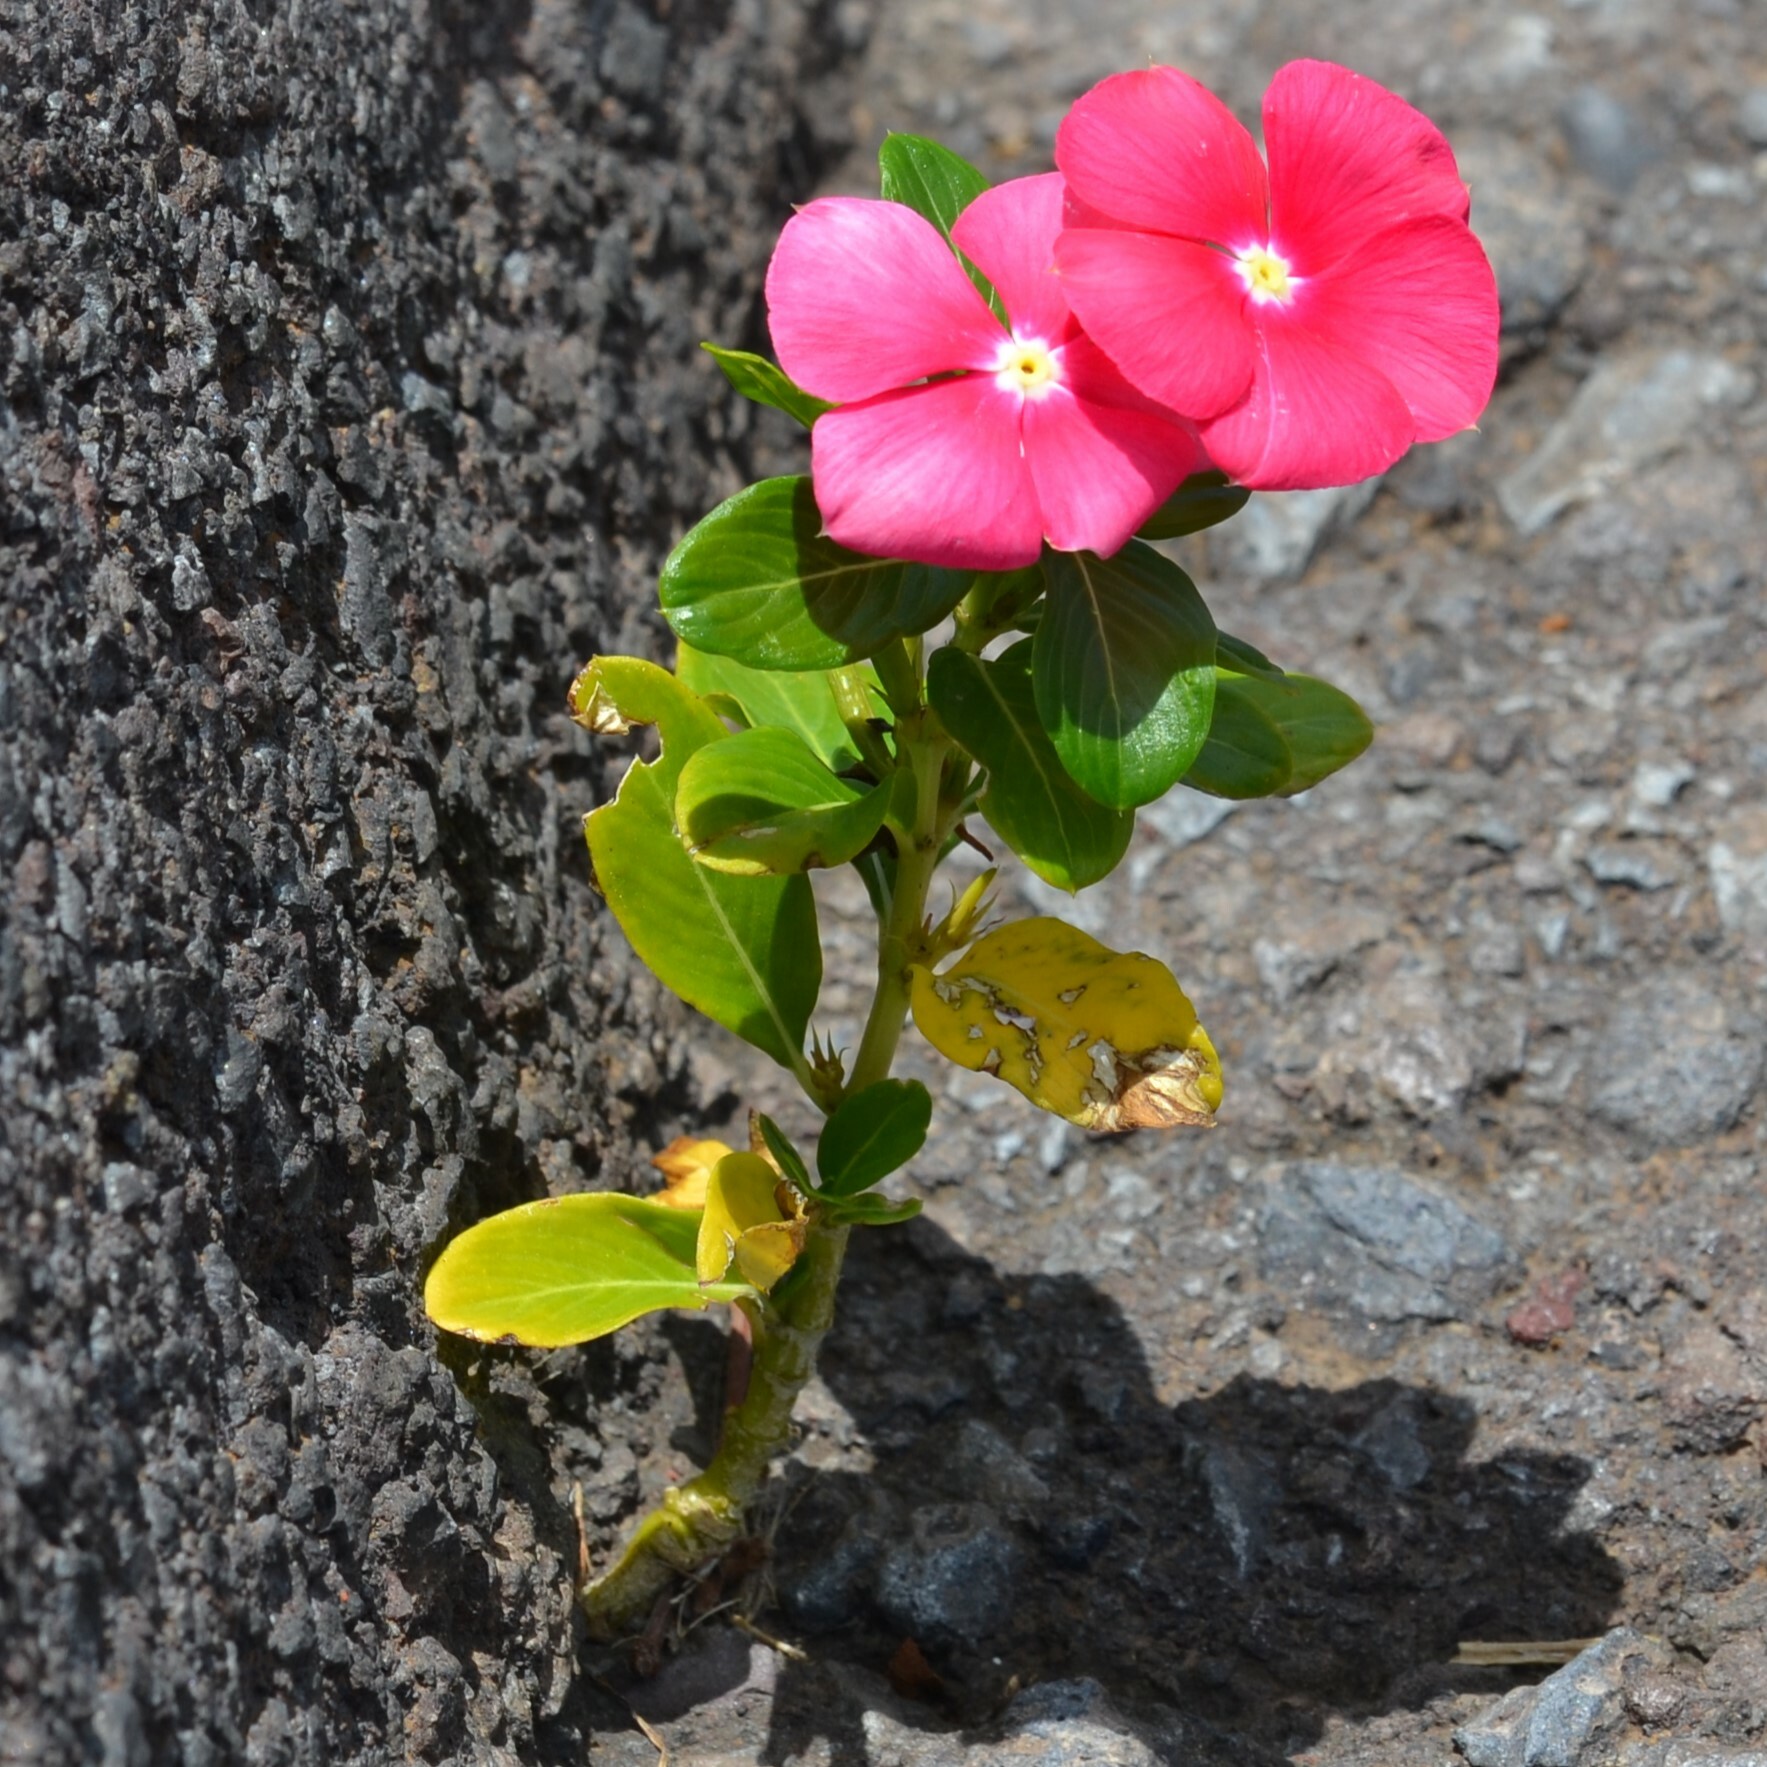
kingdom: Plantae
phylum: Tracheophyta
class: Magnoliopsida
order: Gentianales
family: Apocynaceae
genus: Catharanthus
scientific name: Catharanthus roseus
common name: Madagascar periwinkle
